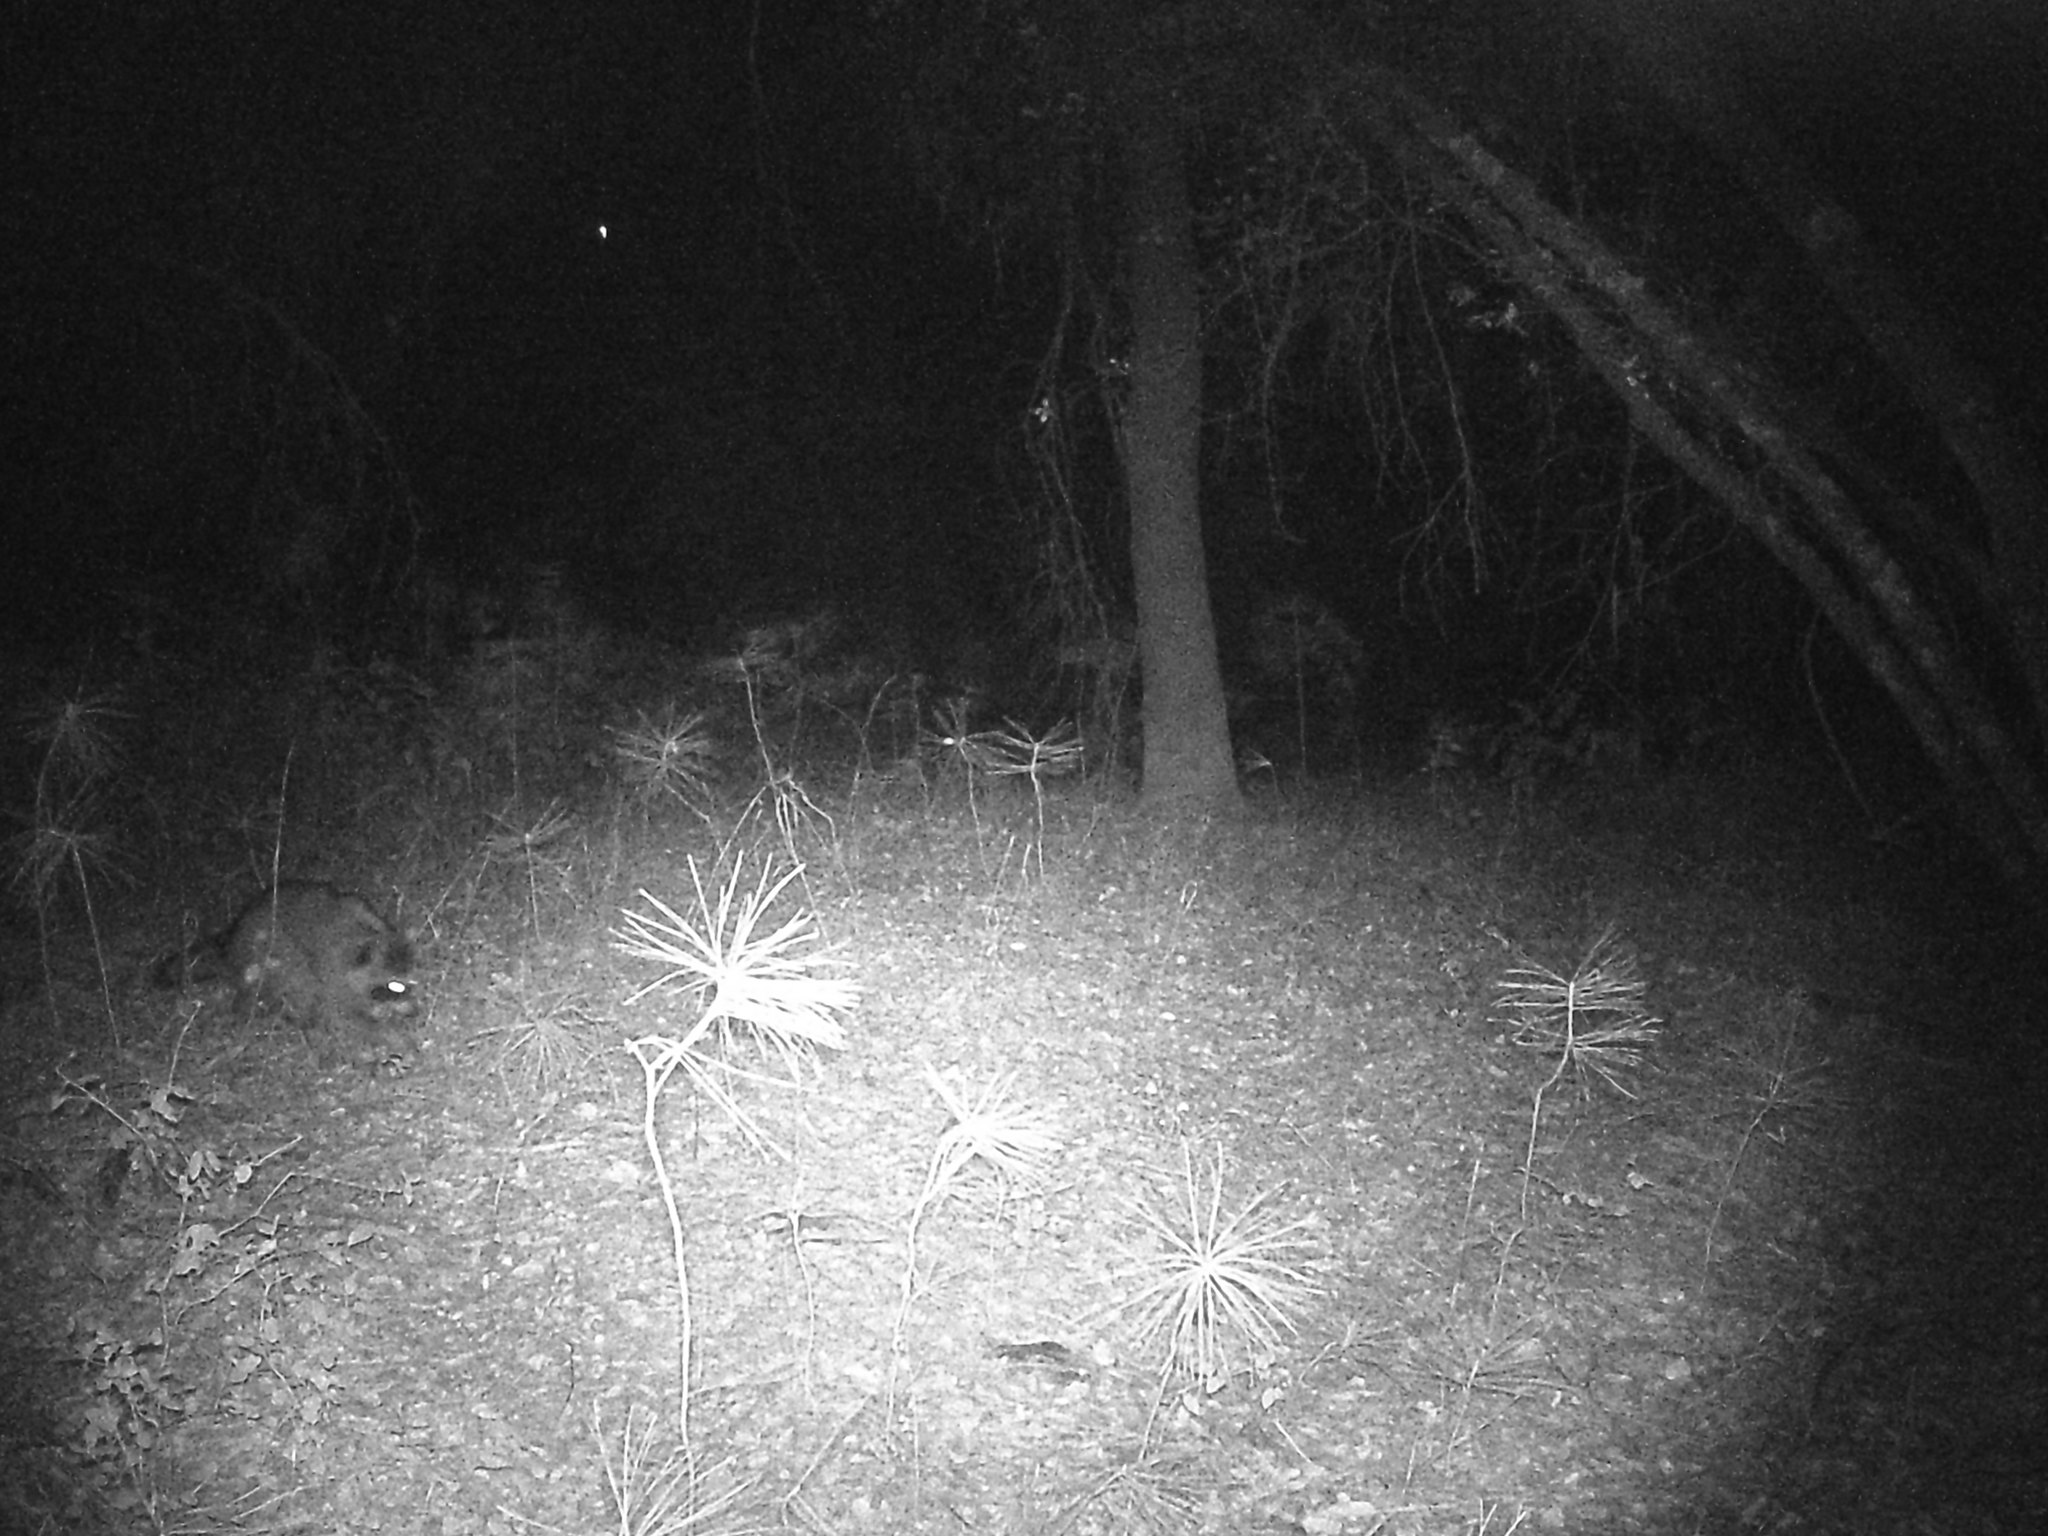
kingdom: Animalia
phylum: Chordata
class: Mammalia
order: Carnivora
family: Procyonidae
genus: Procyon
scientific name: Procyon lotor
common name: Raccoon
